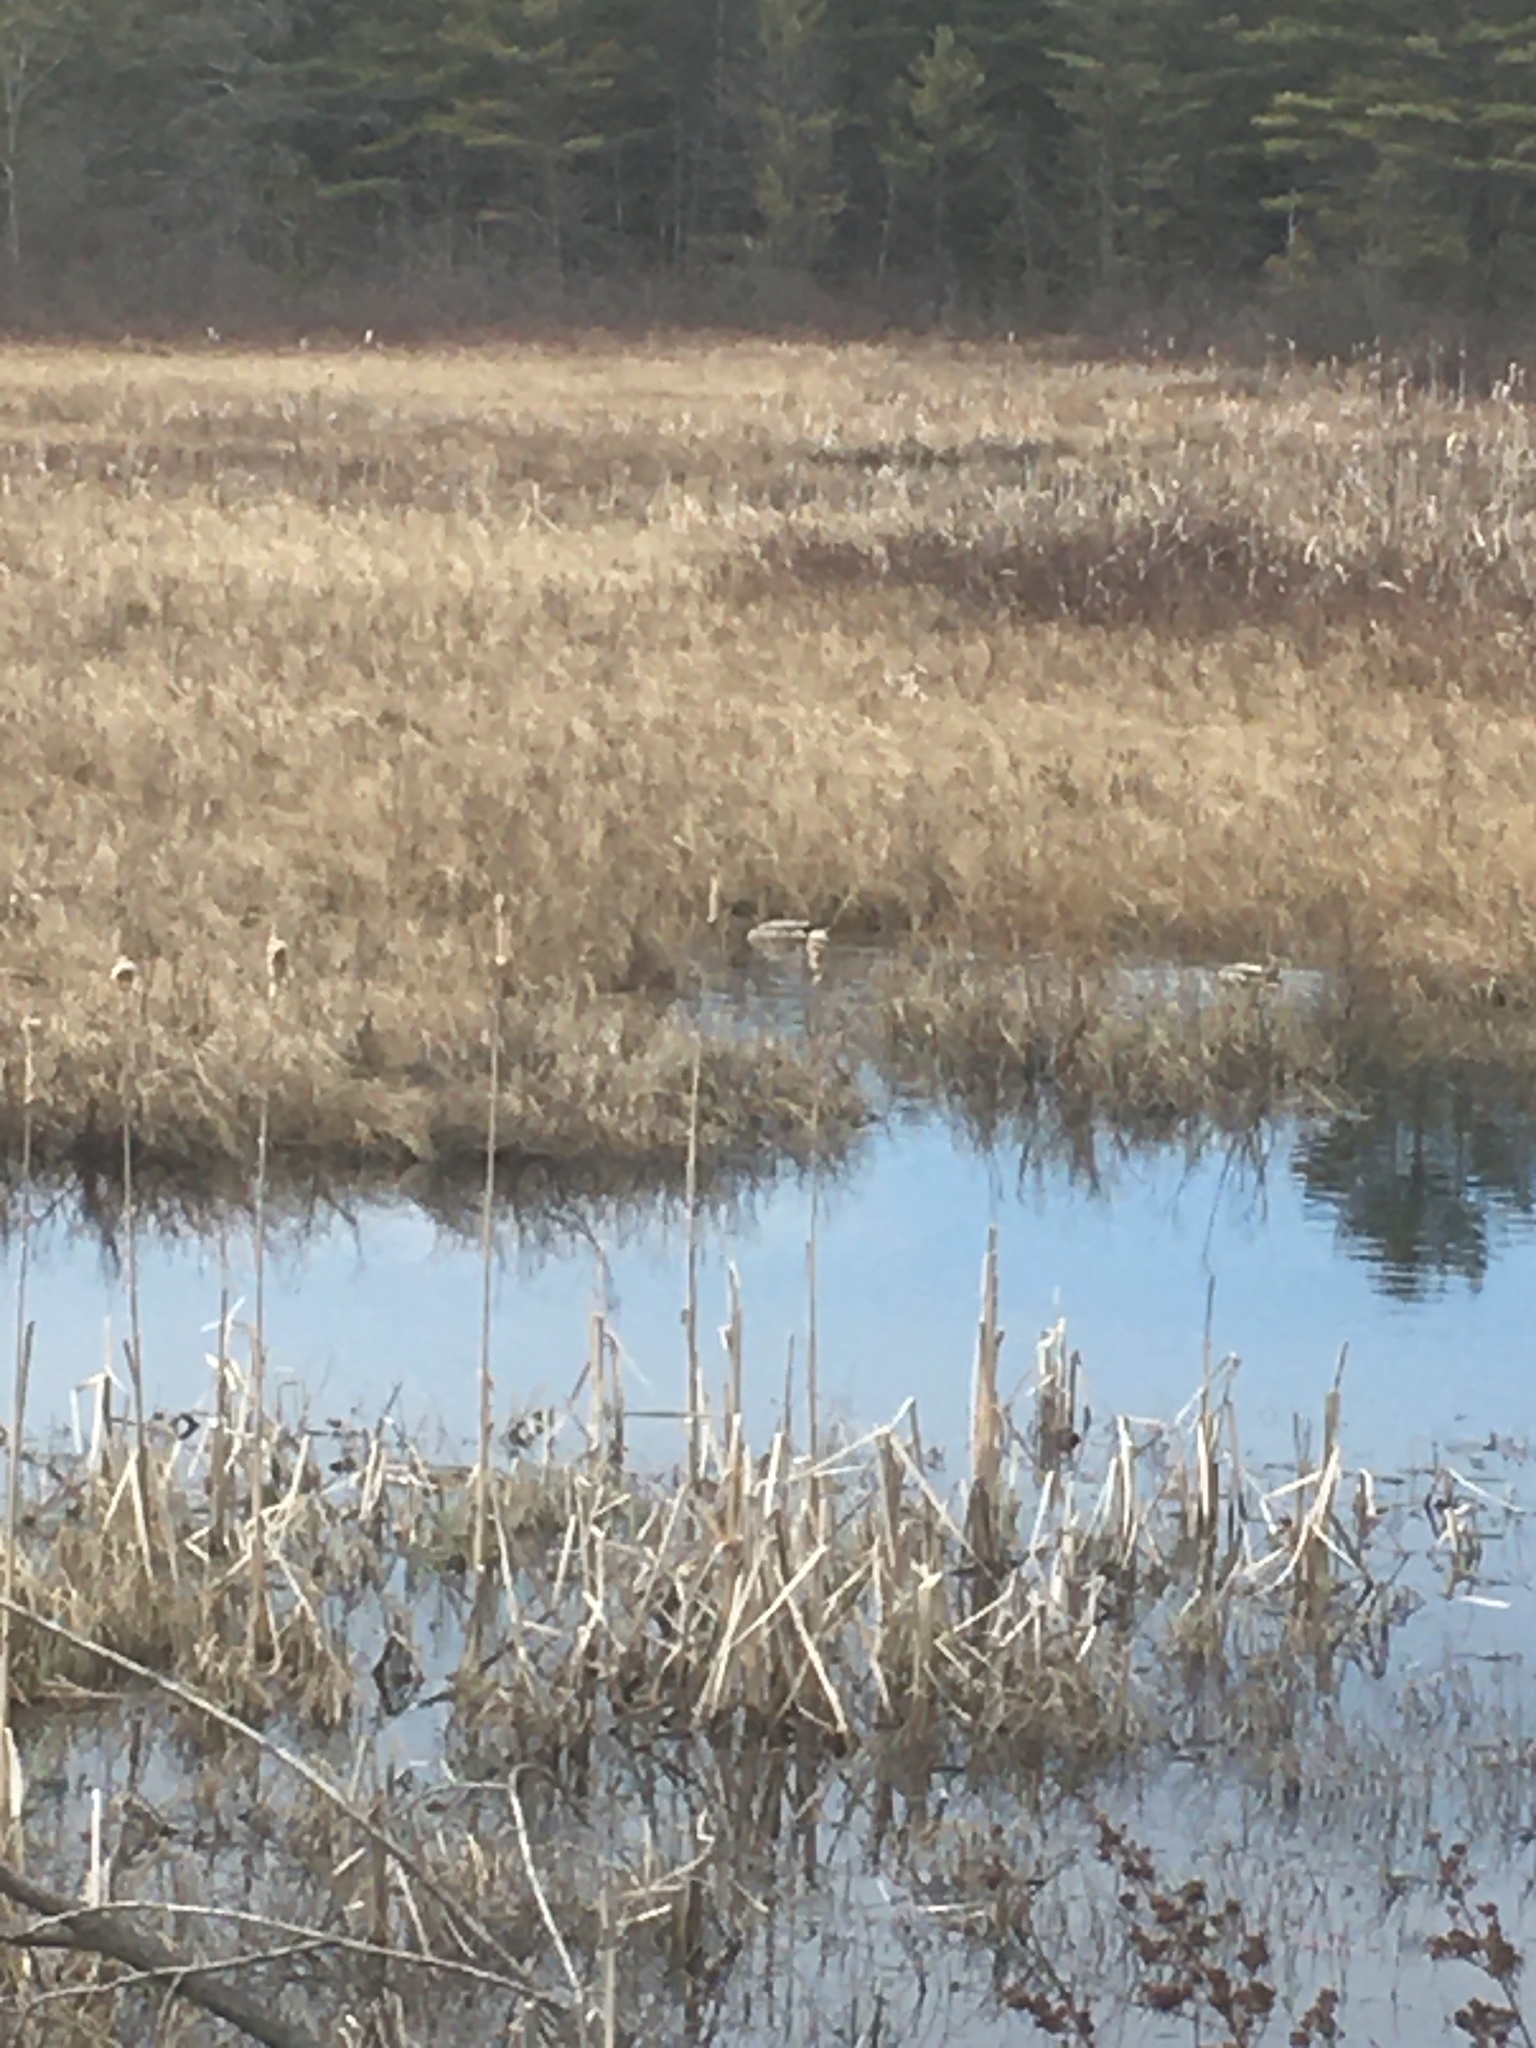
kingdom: Animalia
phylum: Chordata
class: Aves
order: Anseriformes
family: Anatidae
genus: Anas
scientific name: Anas platyrhynchos
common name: Mallard
